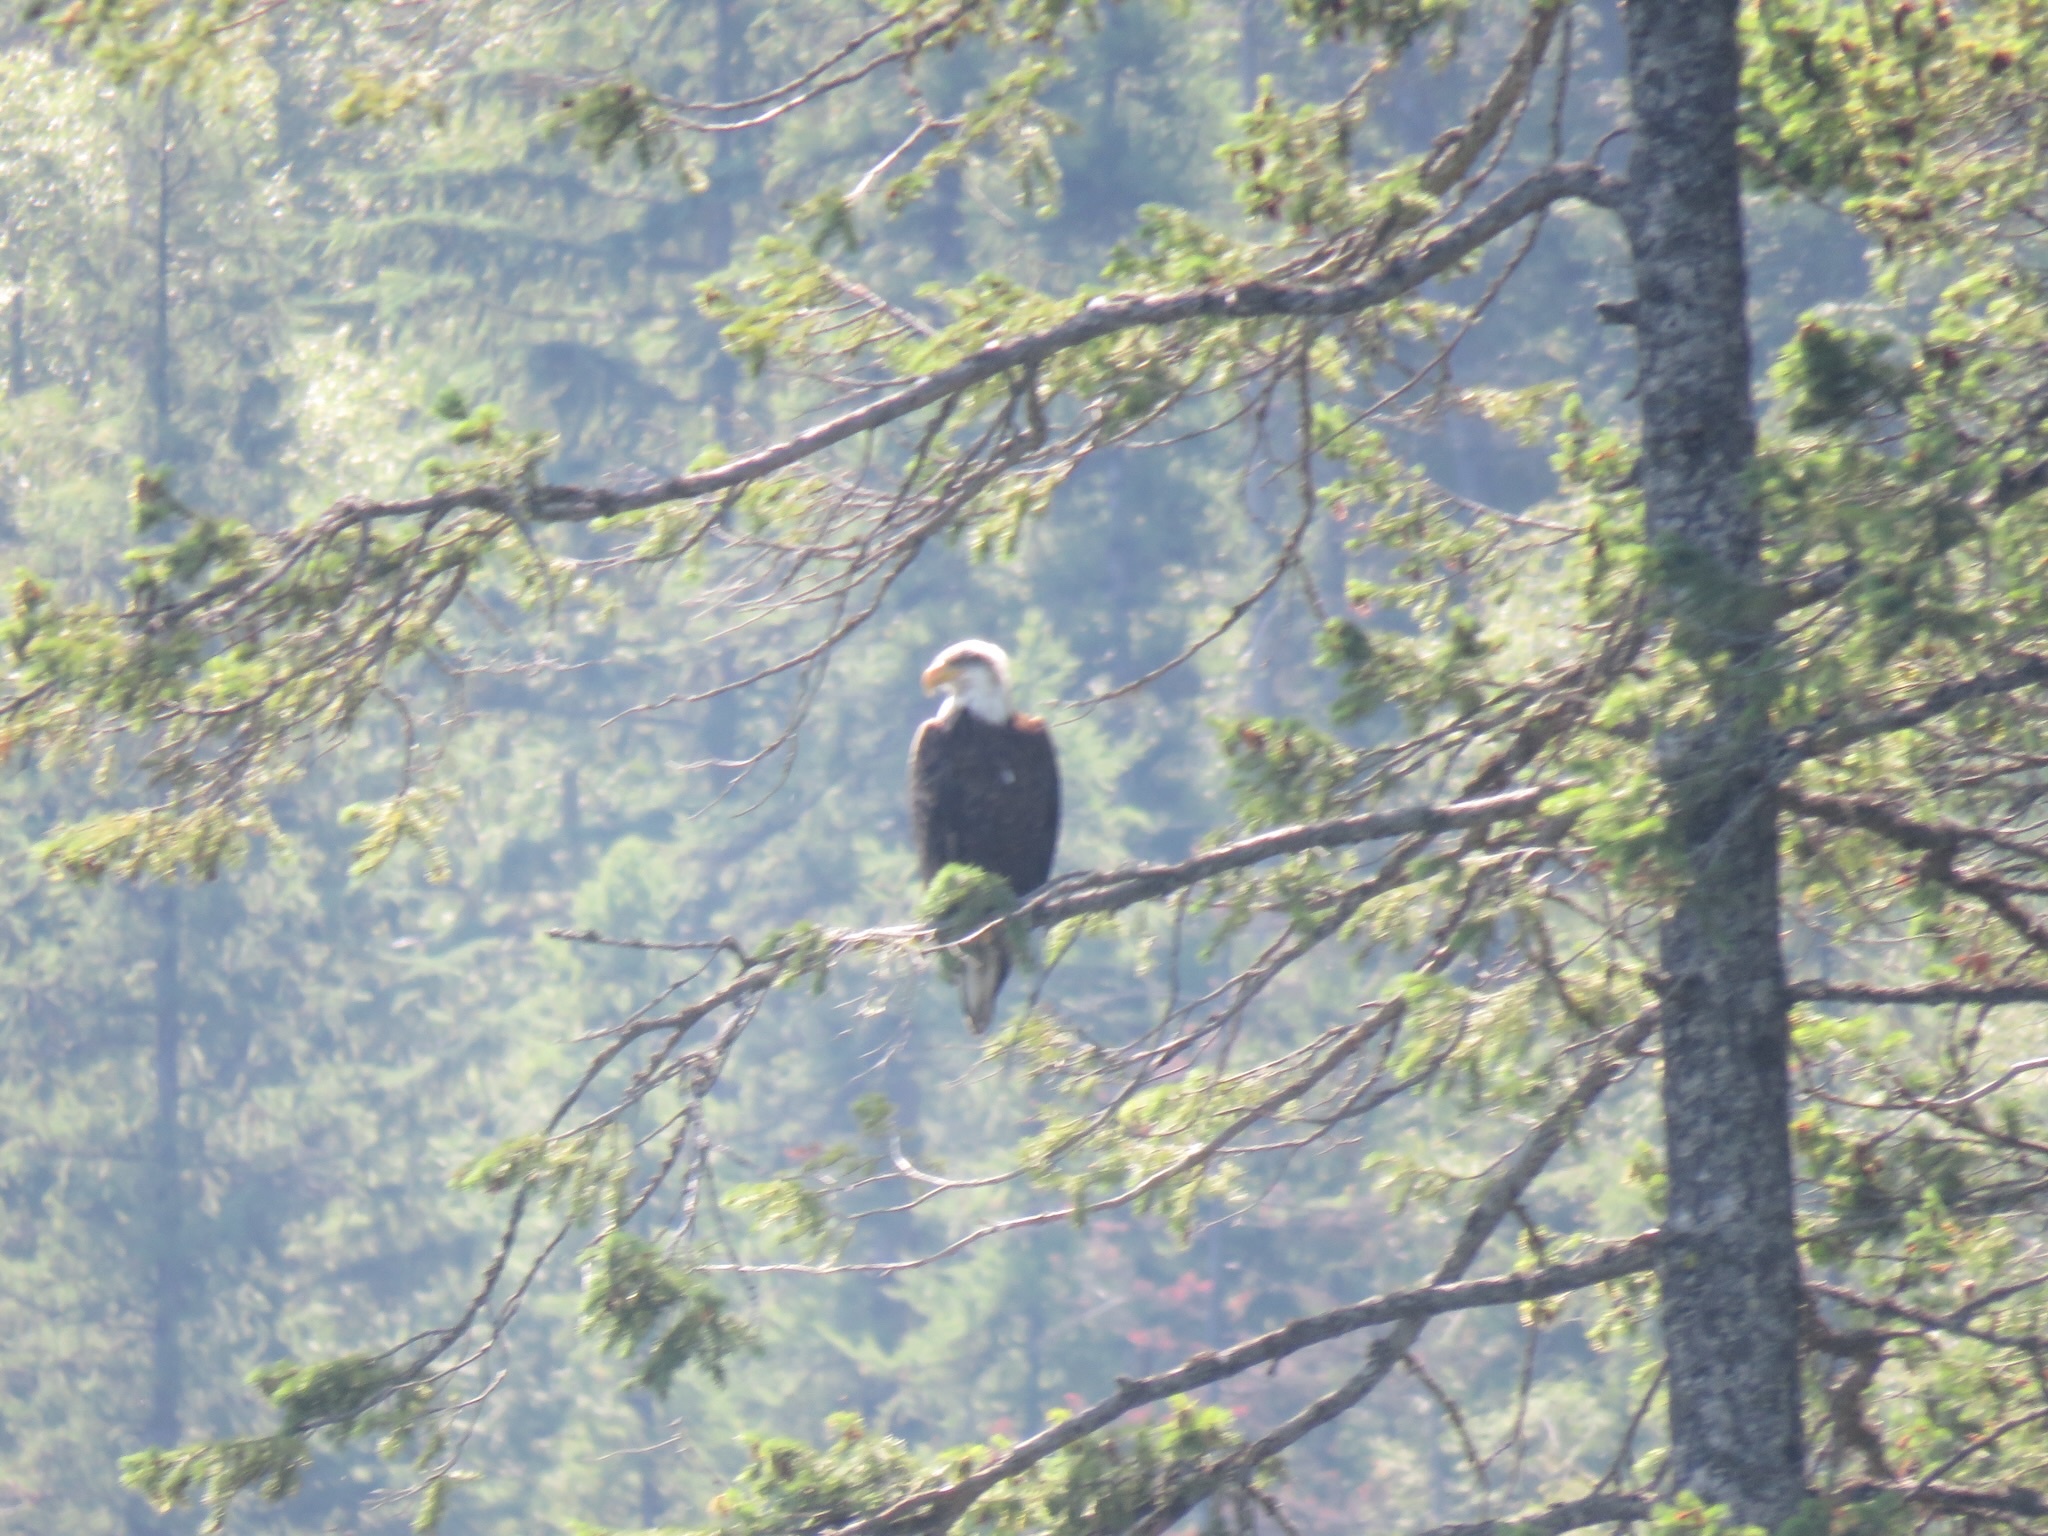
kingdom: Animalia
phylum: Chordata
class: Aves
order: Accipitriformes
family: Accipitridae
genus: Haliaeetus
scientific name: Haliaeetus leucocephalus
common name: Bald eagle
